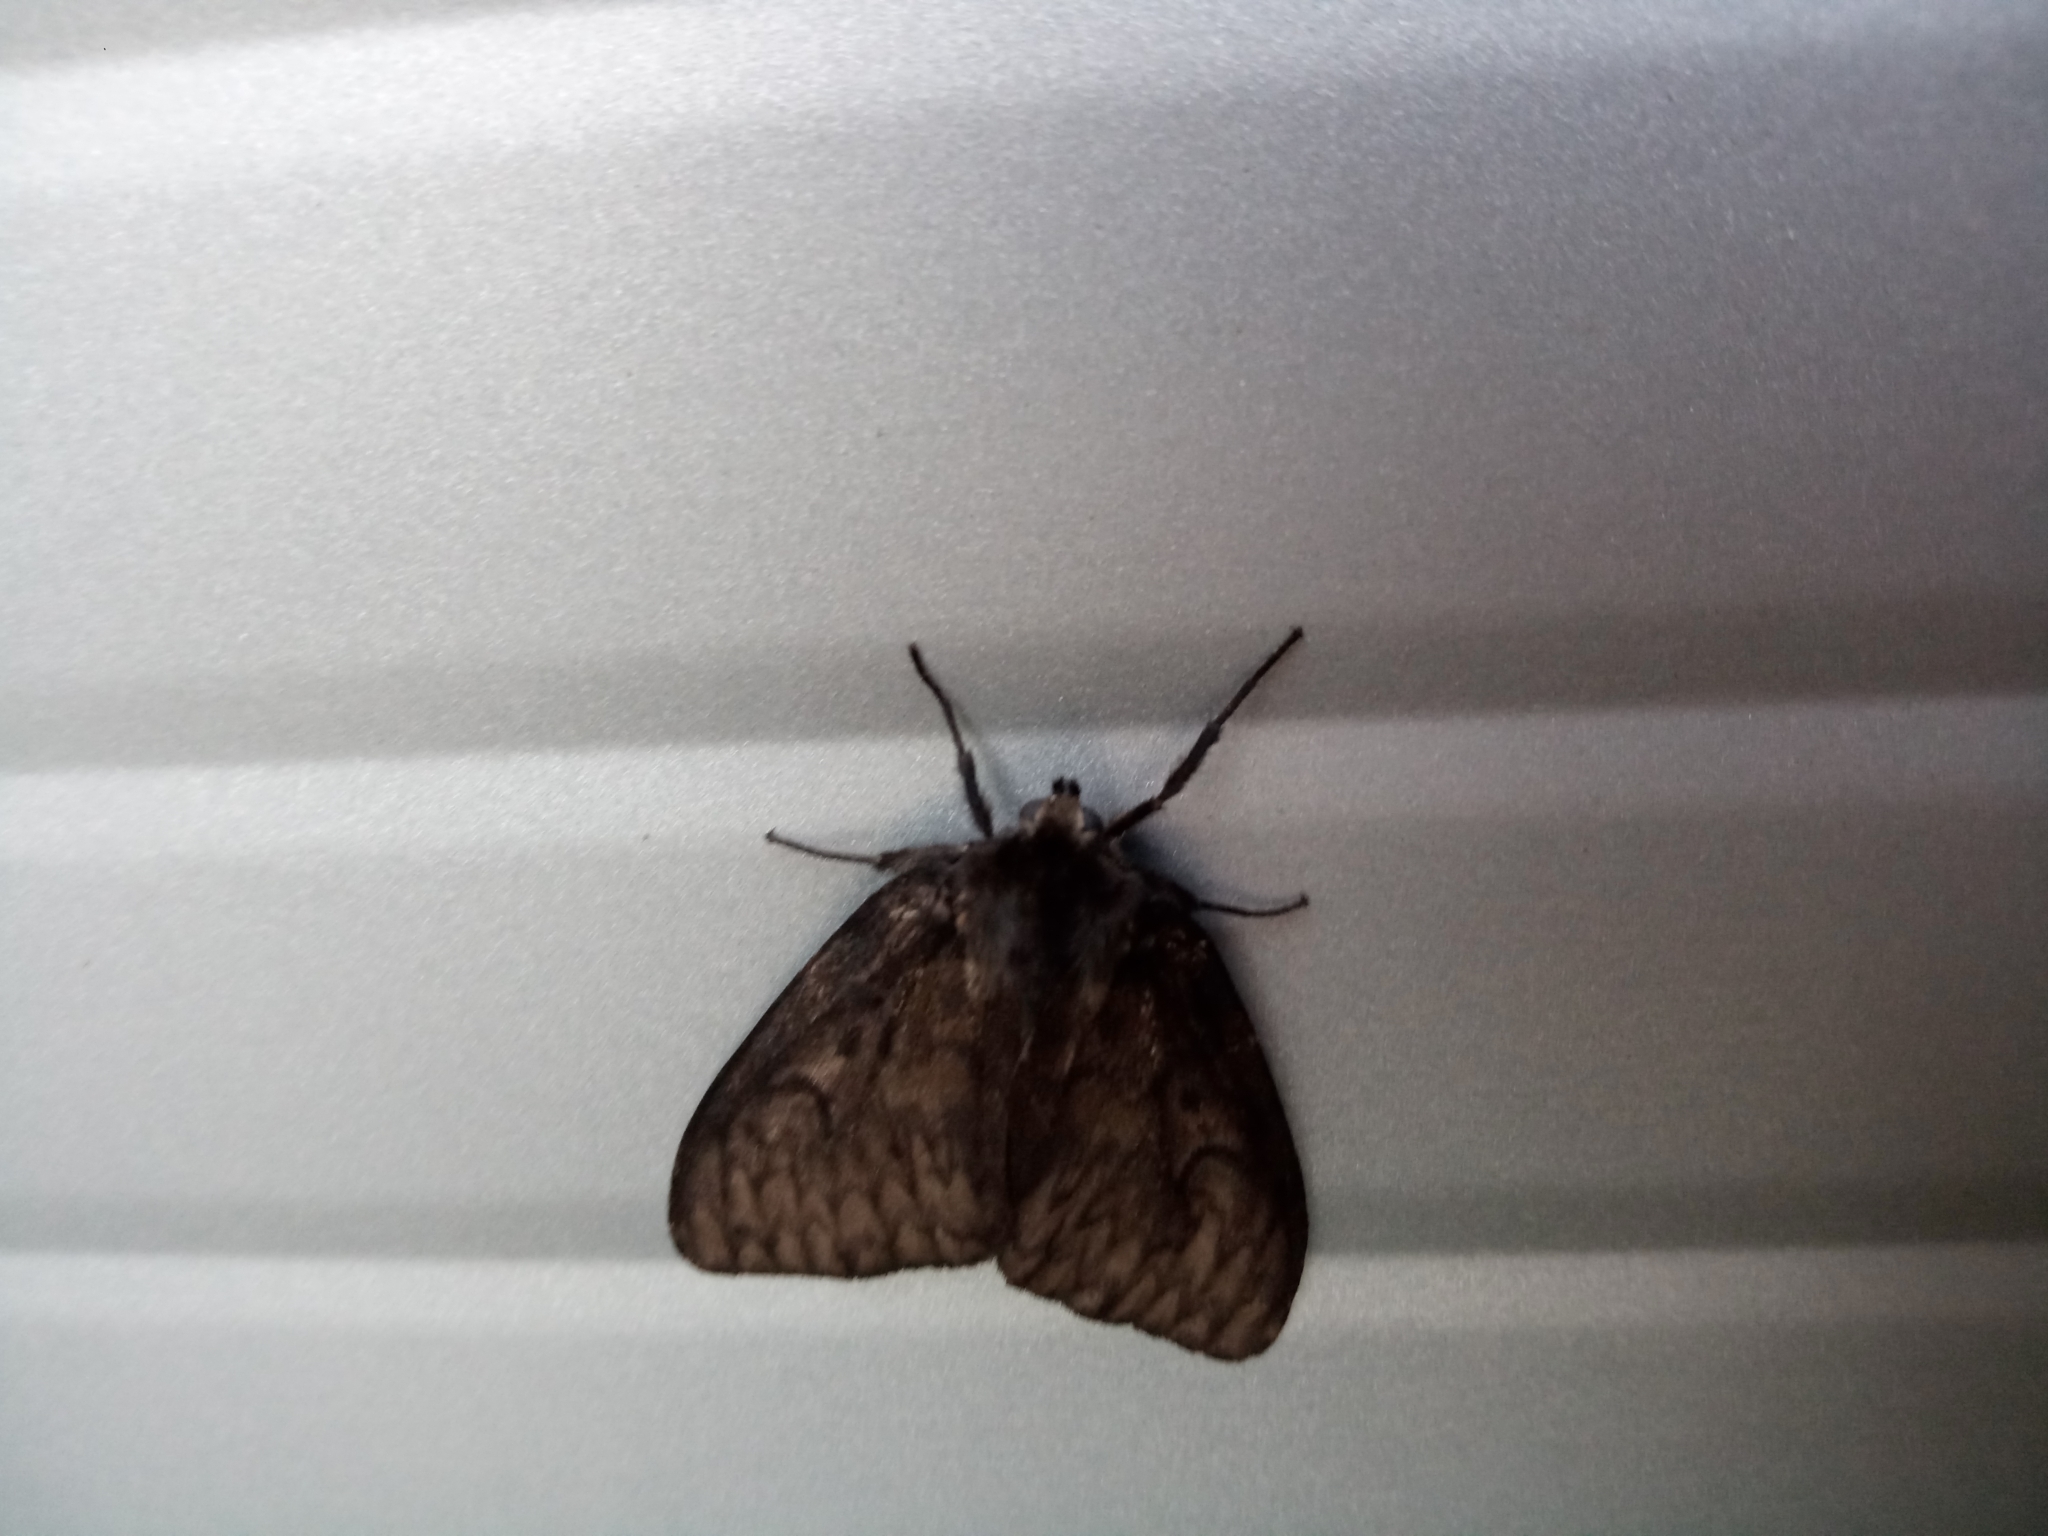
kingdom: Animalia
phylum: Arthropoda
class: Insecta
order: Lepidoptera
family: Erebidae
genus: Lymantria
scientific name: Lymantria dispar
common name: Gypsy moth
